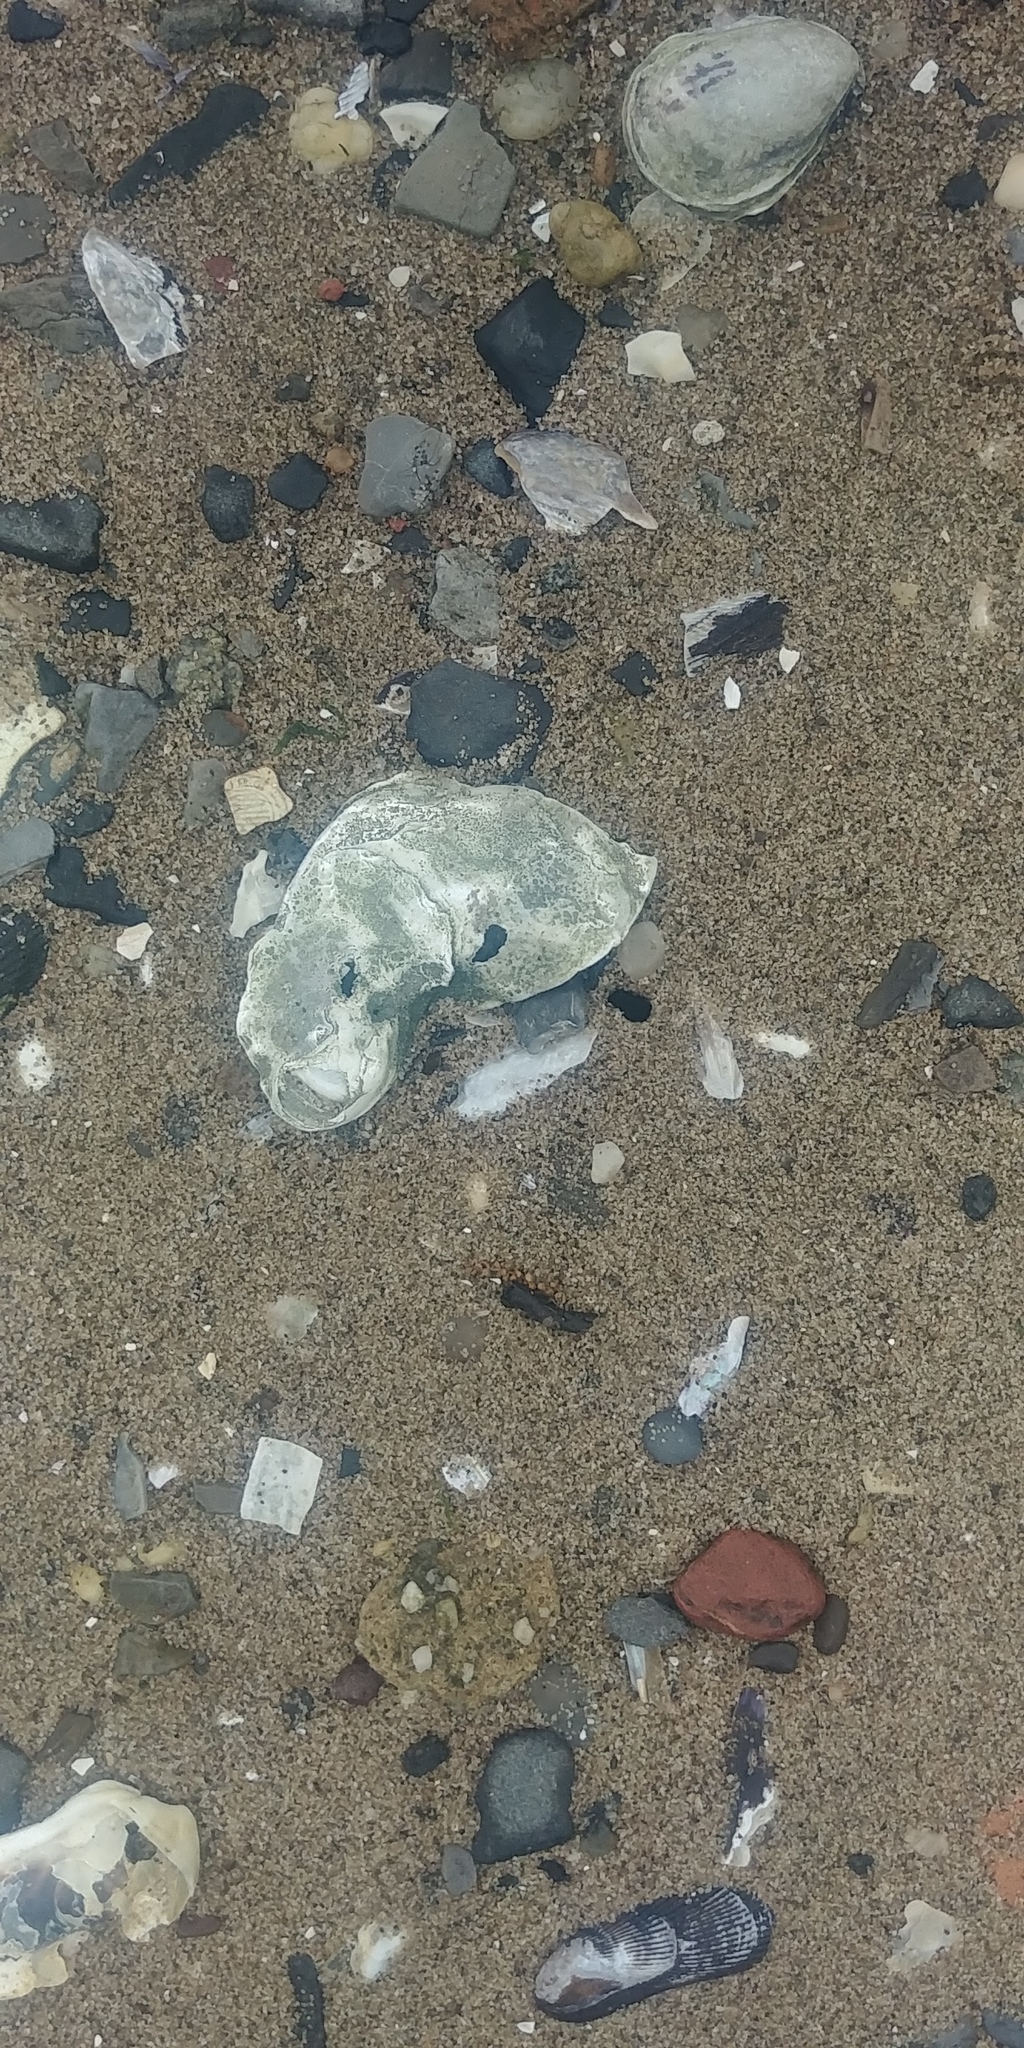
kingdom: Animalia
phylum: Mollusca
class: Bivalvia
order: Ostreida
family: Ostreidae
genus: Crassostrea
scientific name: Crassostrea virginica
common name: American oyster
